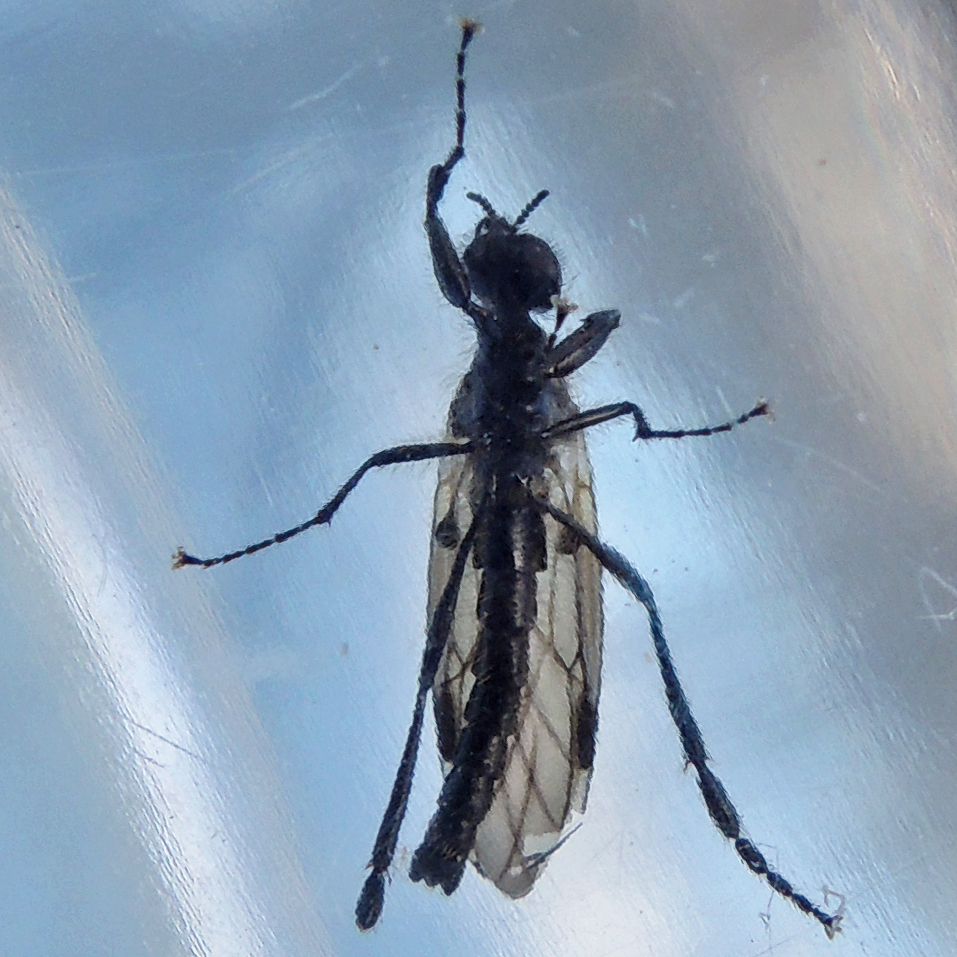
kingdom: Animalia
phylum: Arthropoda
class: Insecta
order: Diptera
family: Bibionidae
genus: Bibio
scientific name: Bibio longipes
